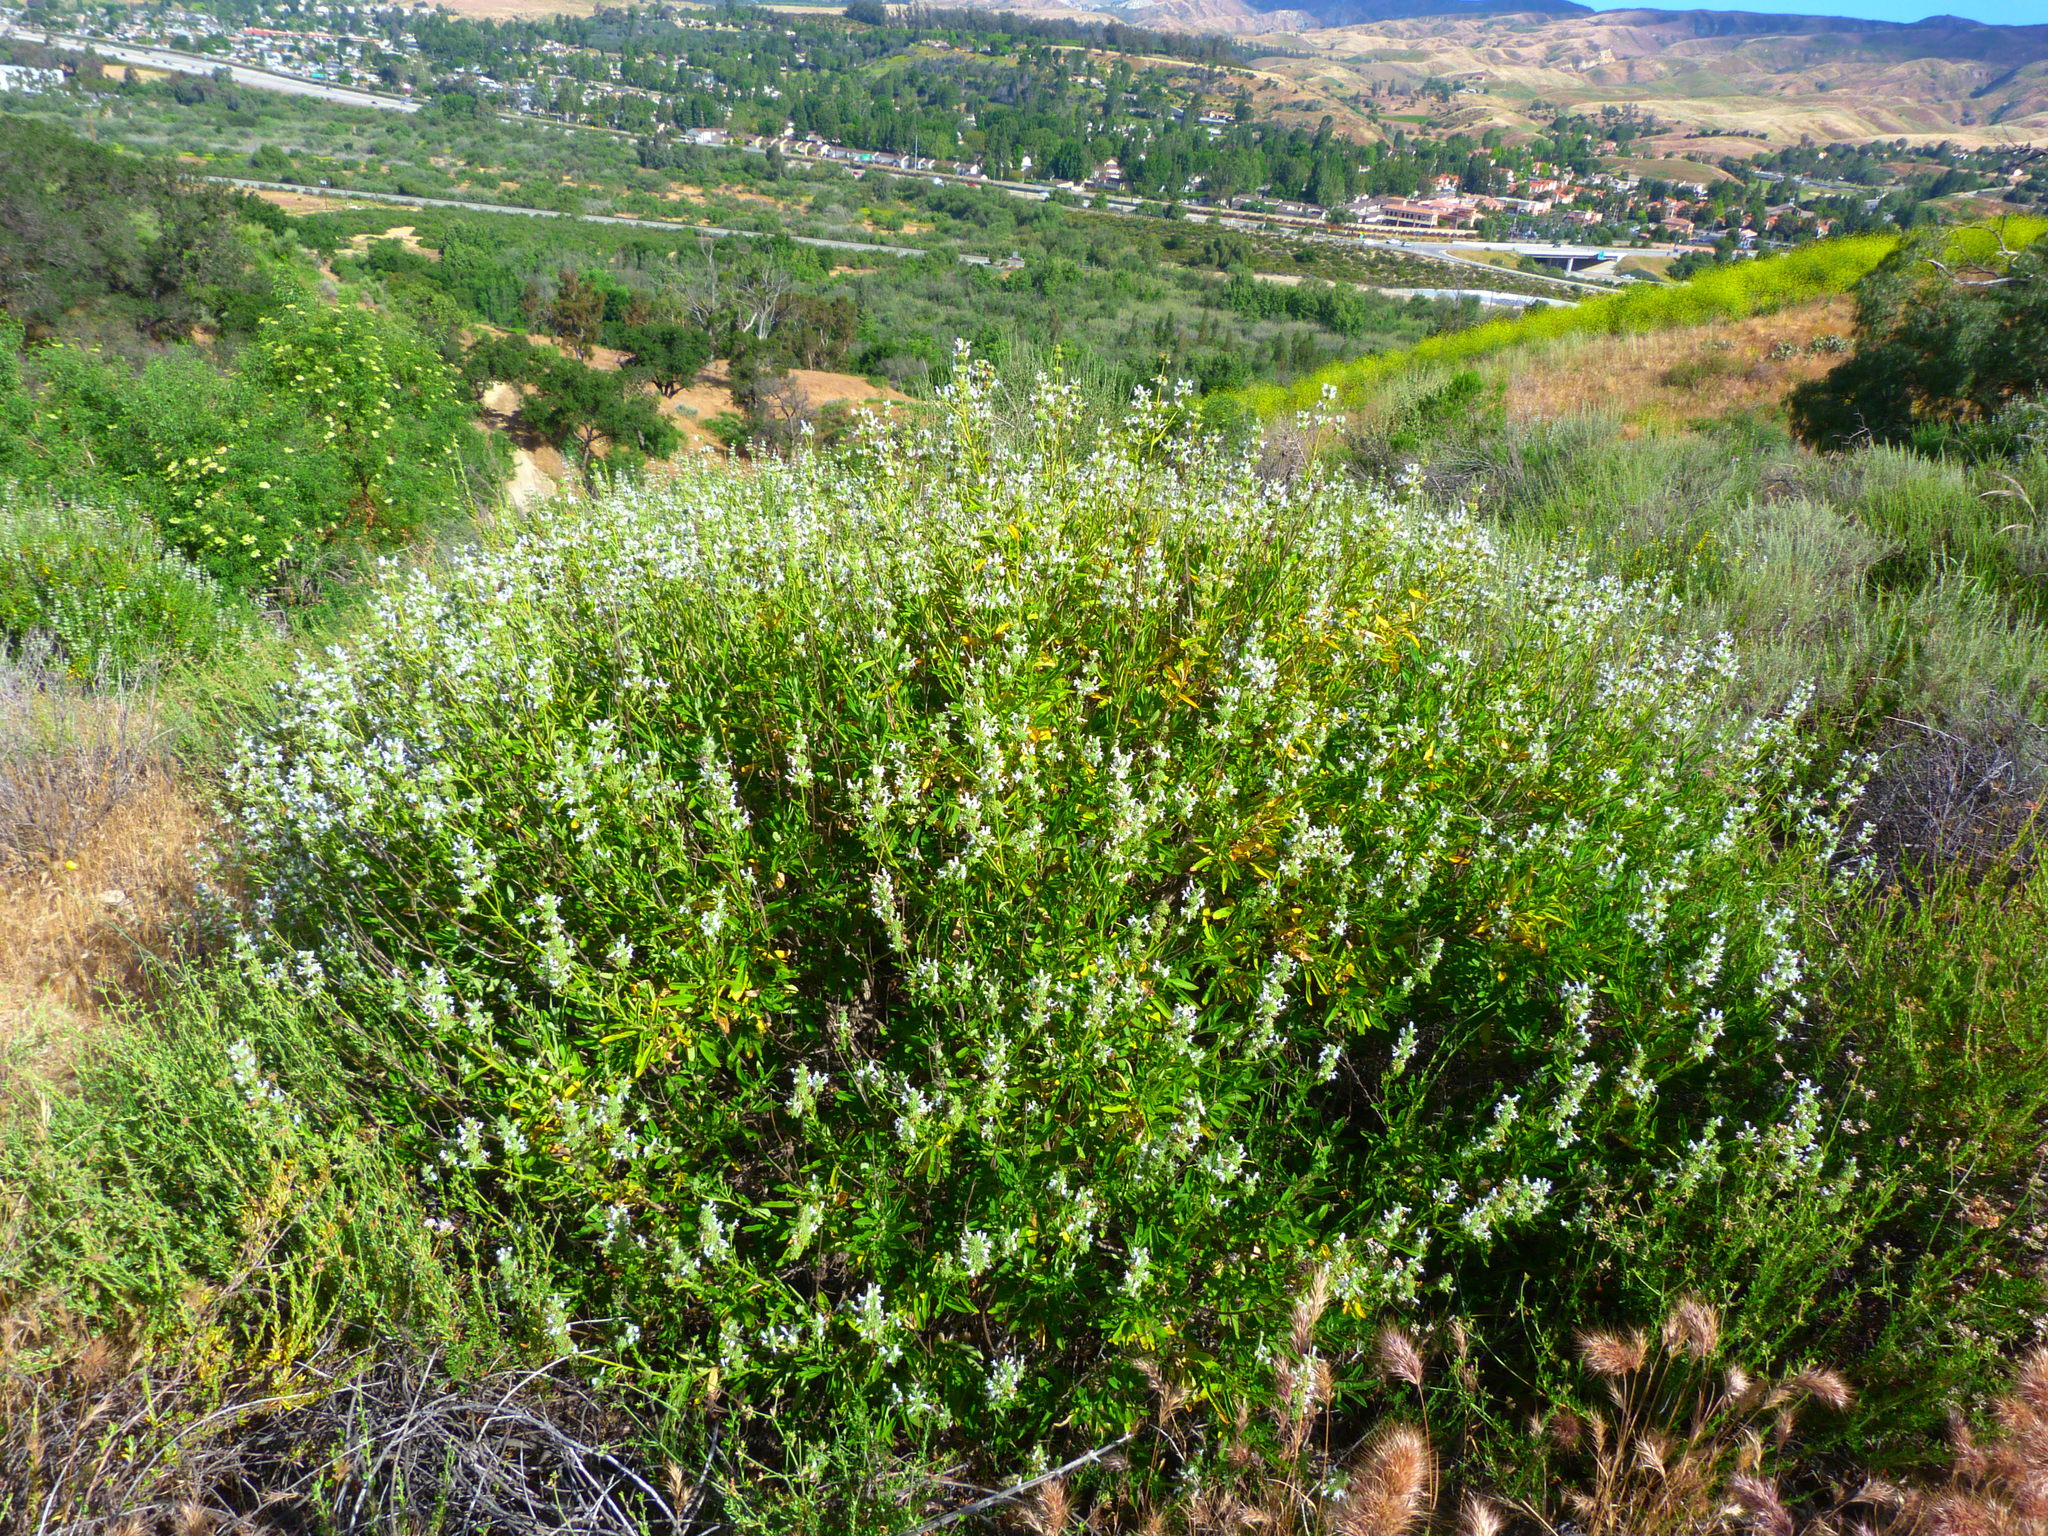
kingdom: Plantae
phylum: Tracheophyta
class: Magnoliopsida
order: Lamiales
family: Lamiaceae
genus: Salvia
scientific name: Salvia mellifera
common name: Black sage
